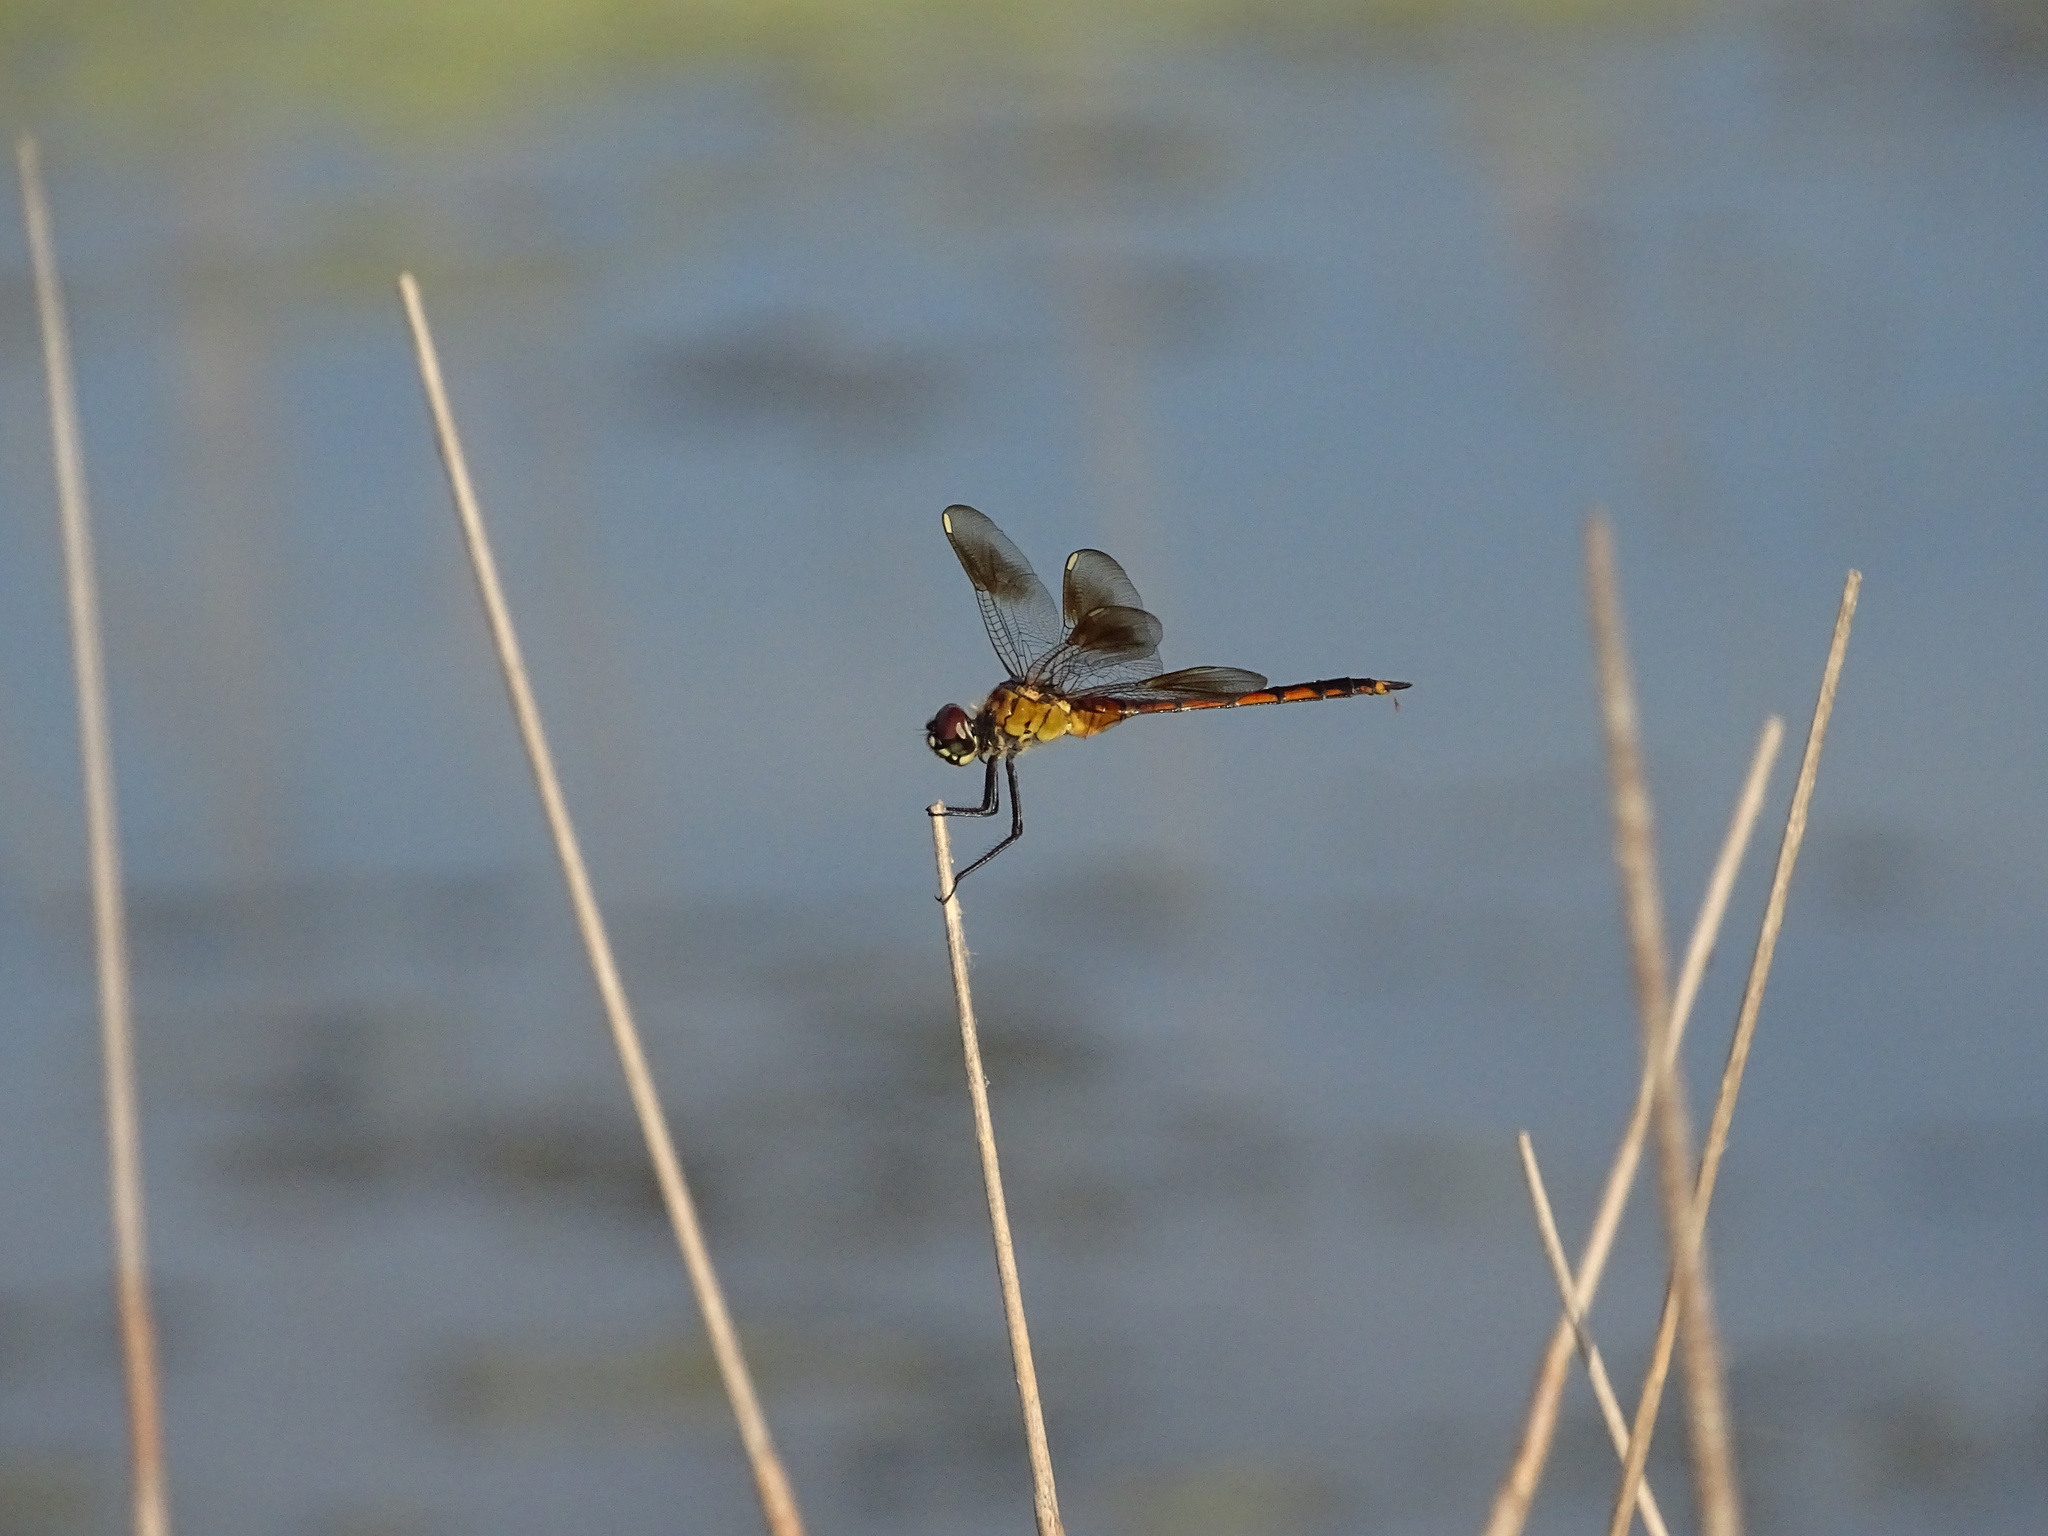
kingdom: Animalia
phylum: Arthropoda
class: Insecta
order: Odonata
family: Libellulidae
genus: Brachymesia
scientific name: Brachymesia gravida
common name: Four-spotted pennant
